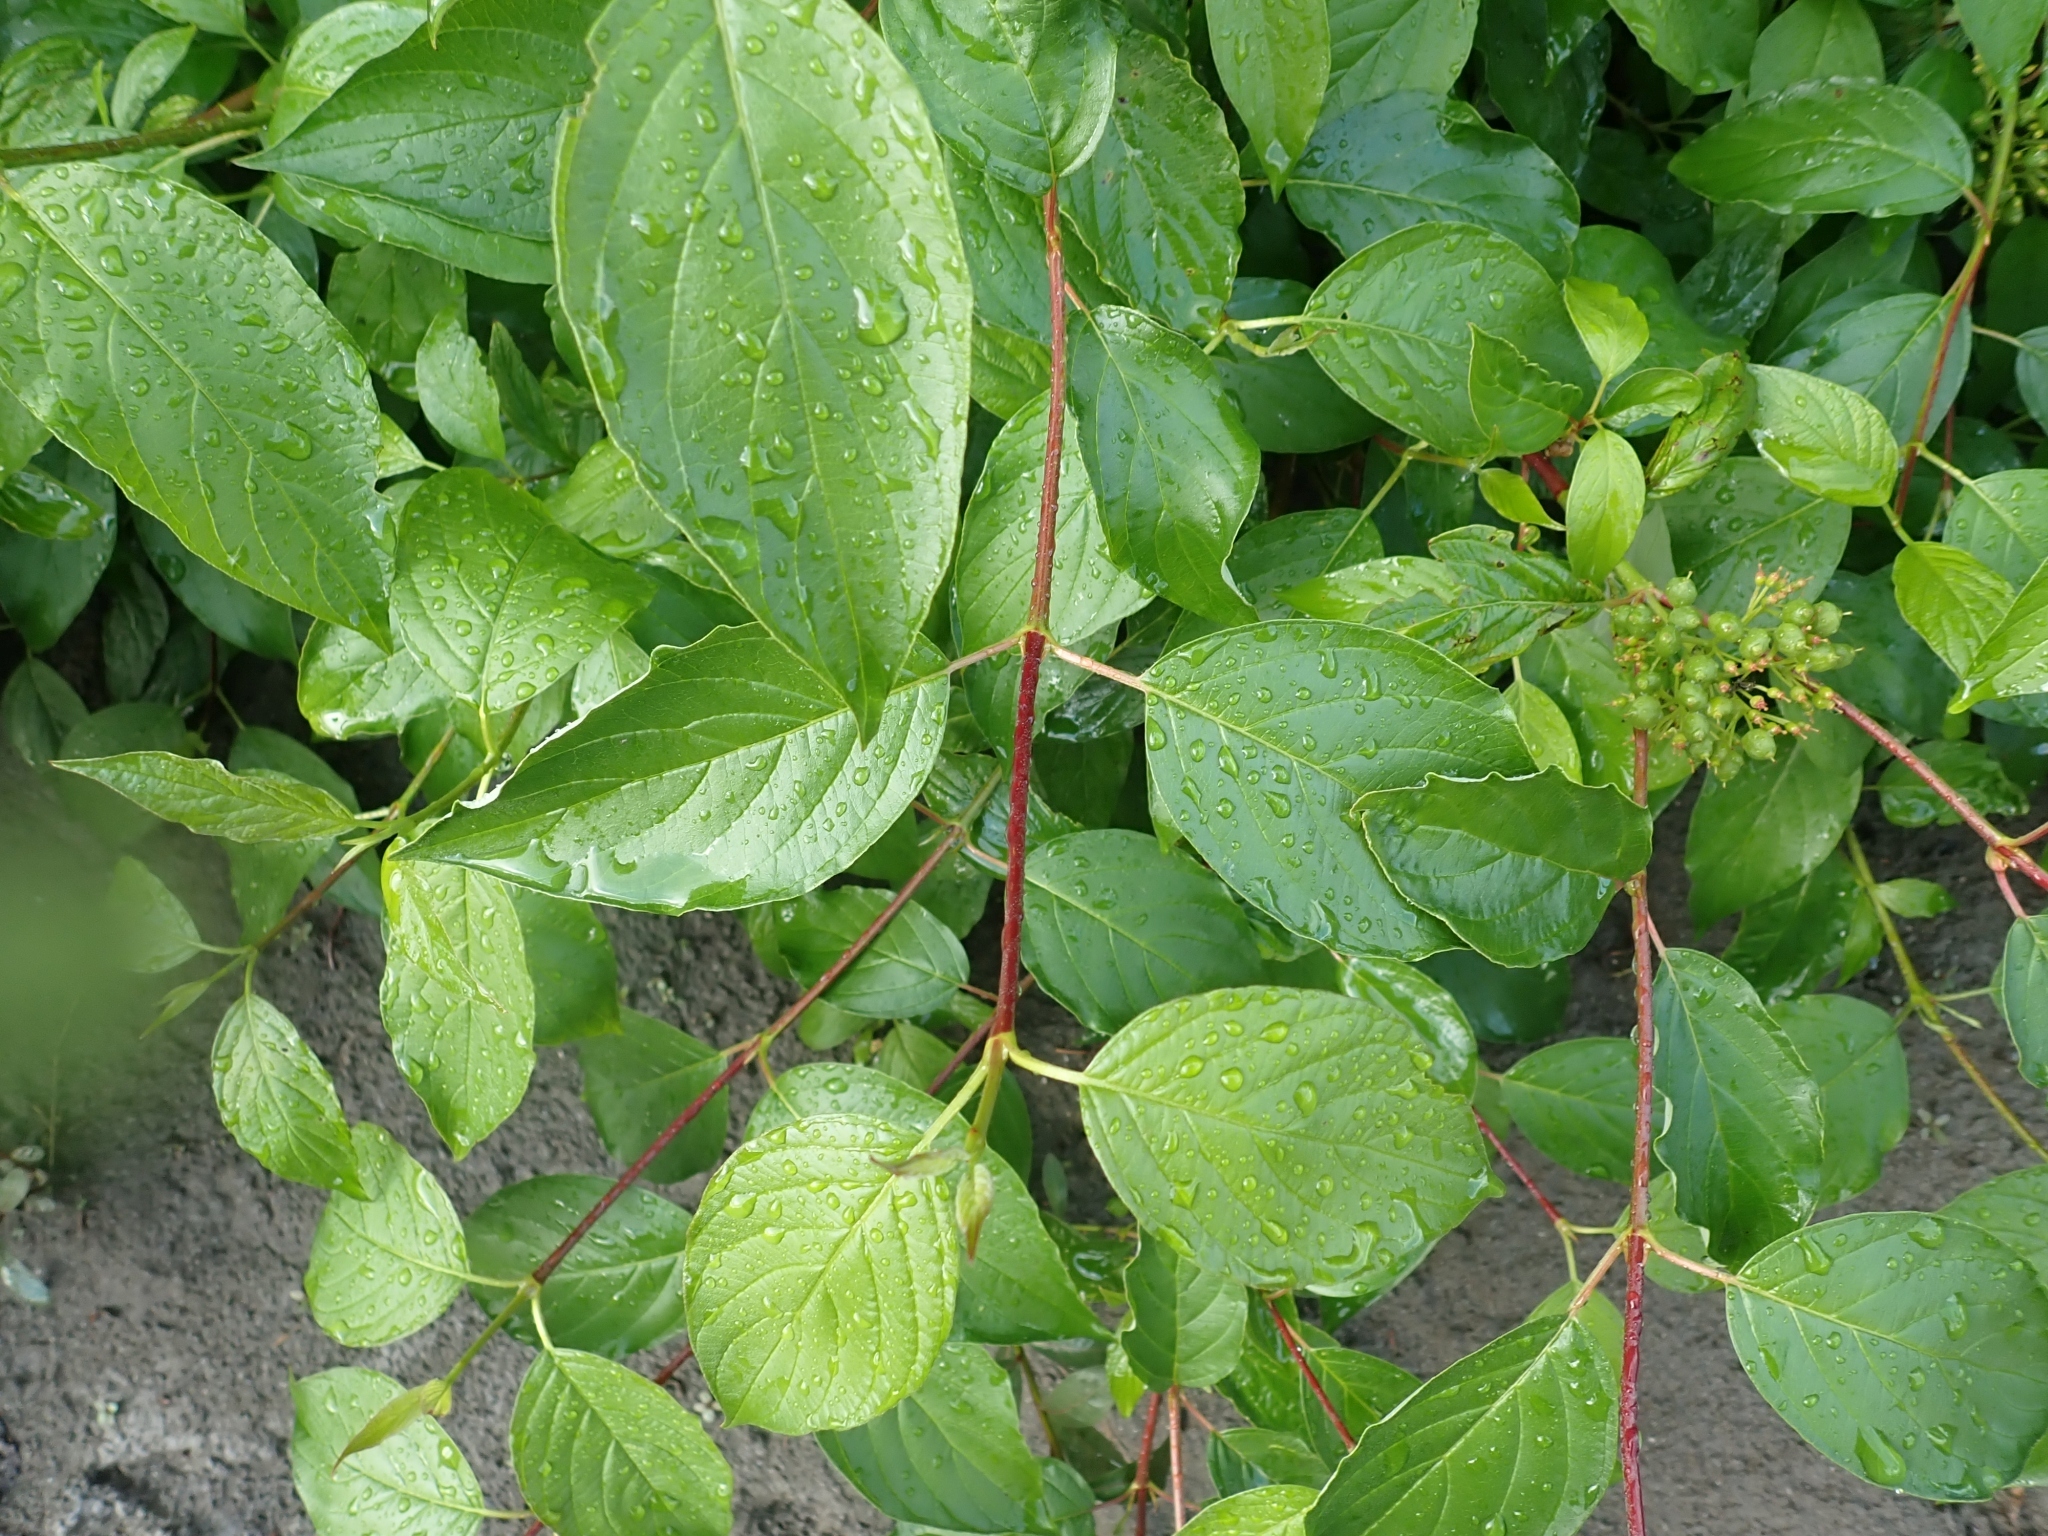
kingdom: Plantae
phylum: Tracheophyta
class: Magnoliopsida
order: Cornales
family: Cornaceae
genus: Cornus
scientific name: Cornus sericea
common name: Red-osier dogwood
